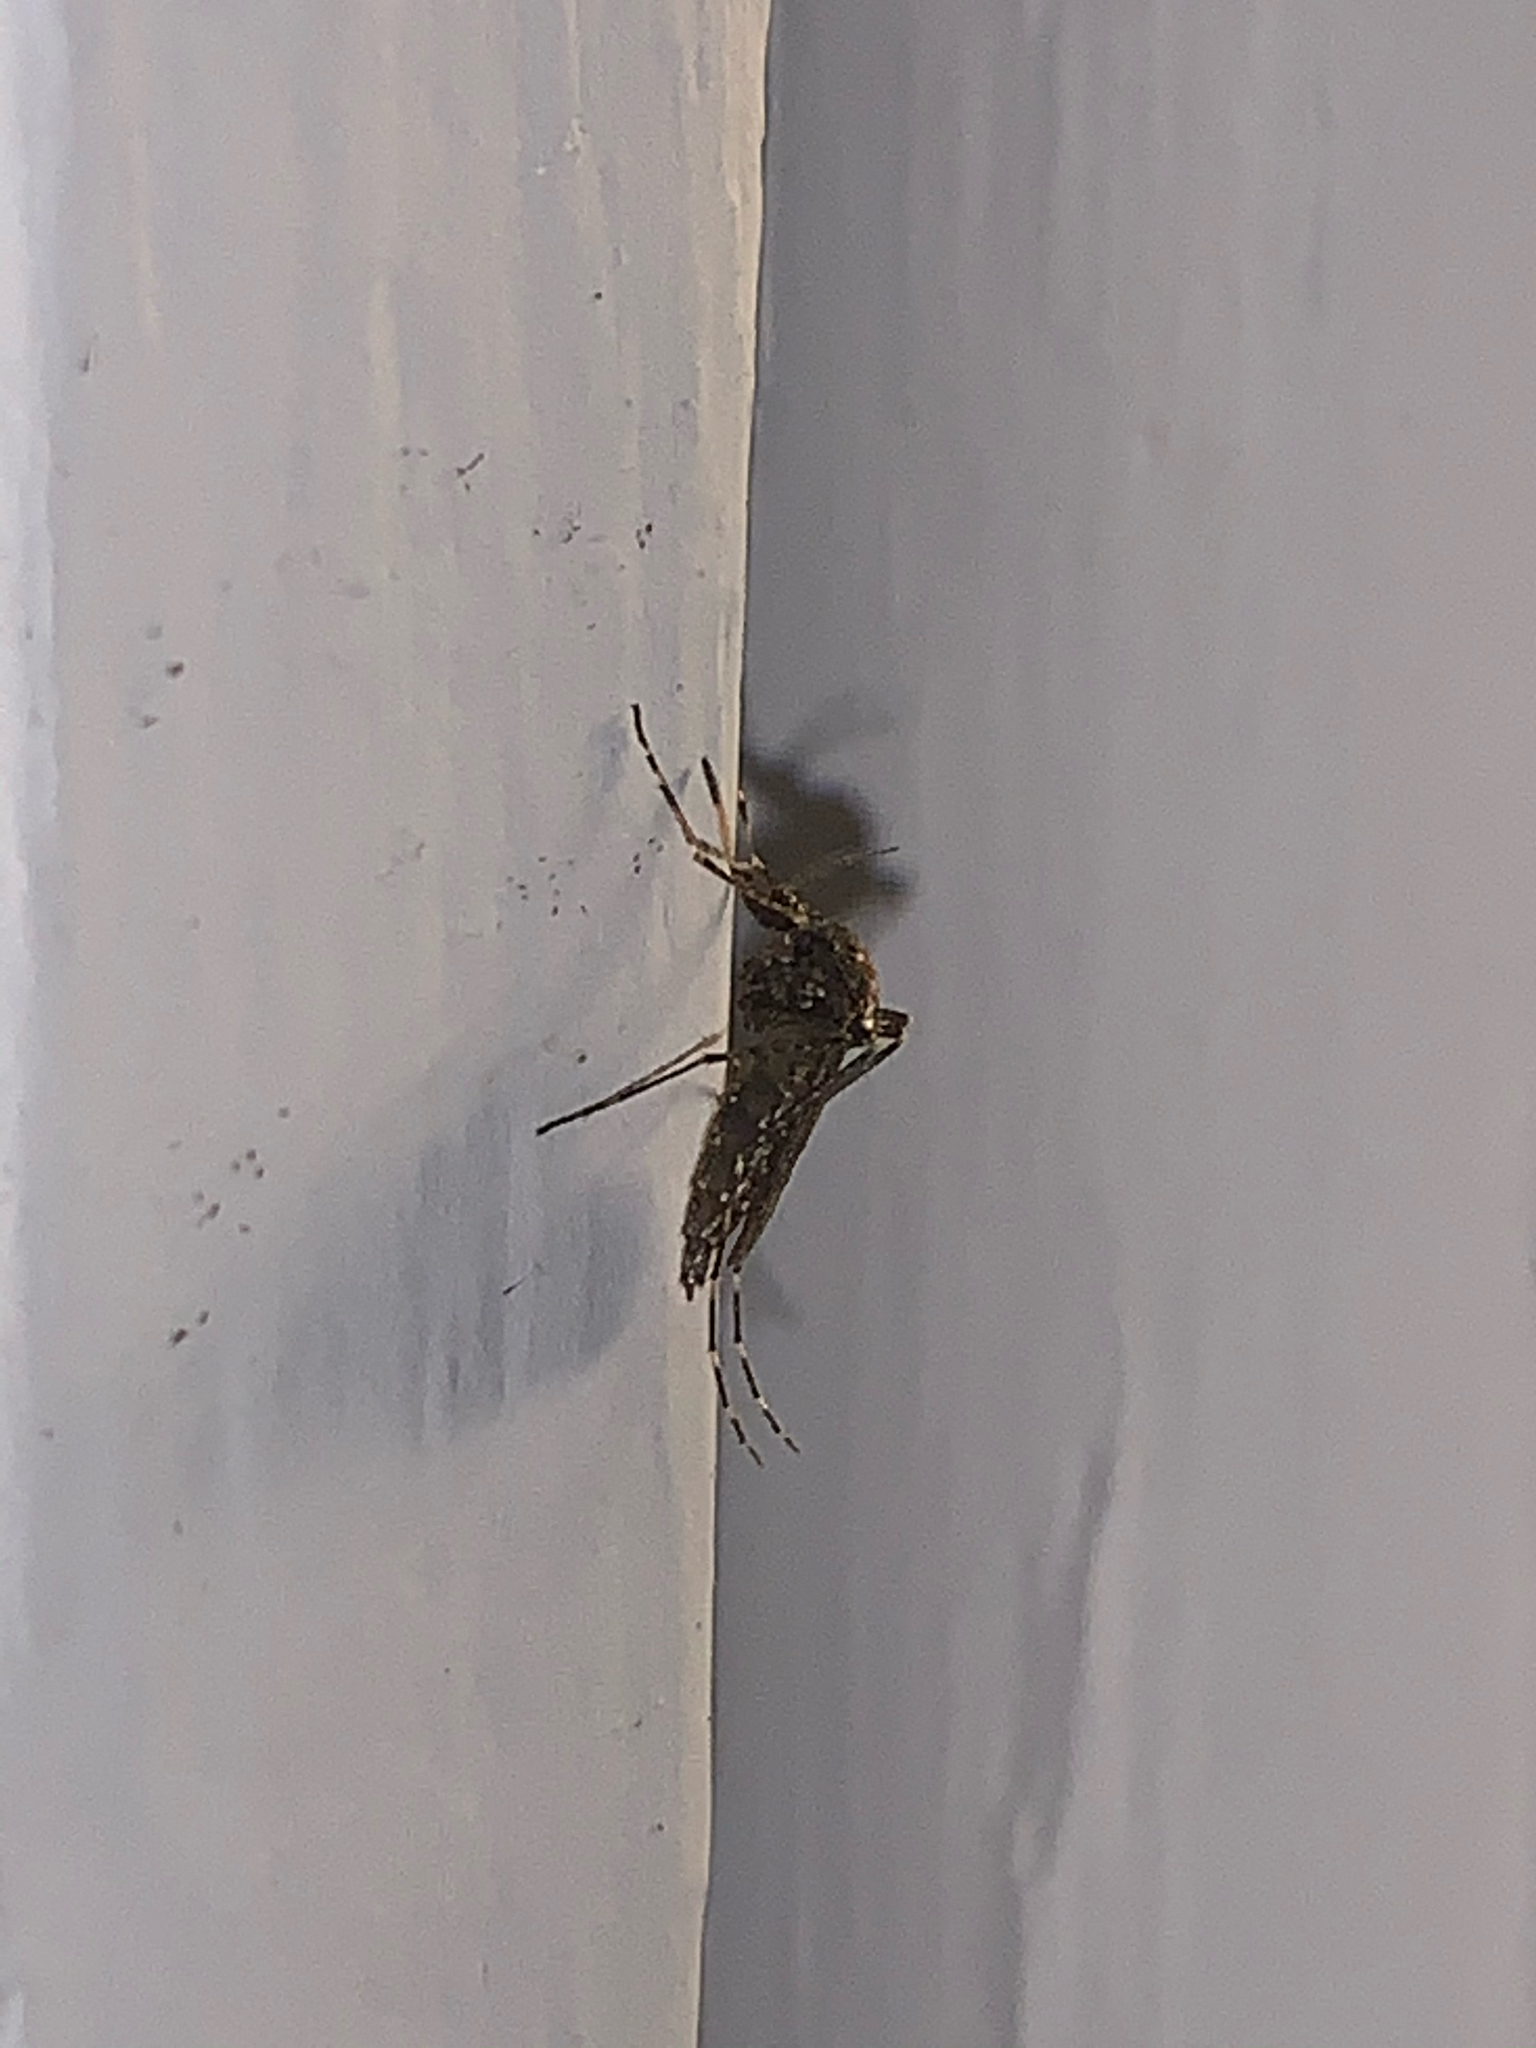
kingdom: Animalia
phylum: Arthropoda
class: Insecta
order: Diptera
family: Culicidae
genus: Psorophora
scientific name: Psorophora columbiae
